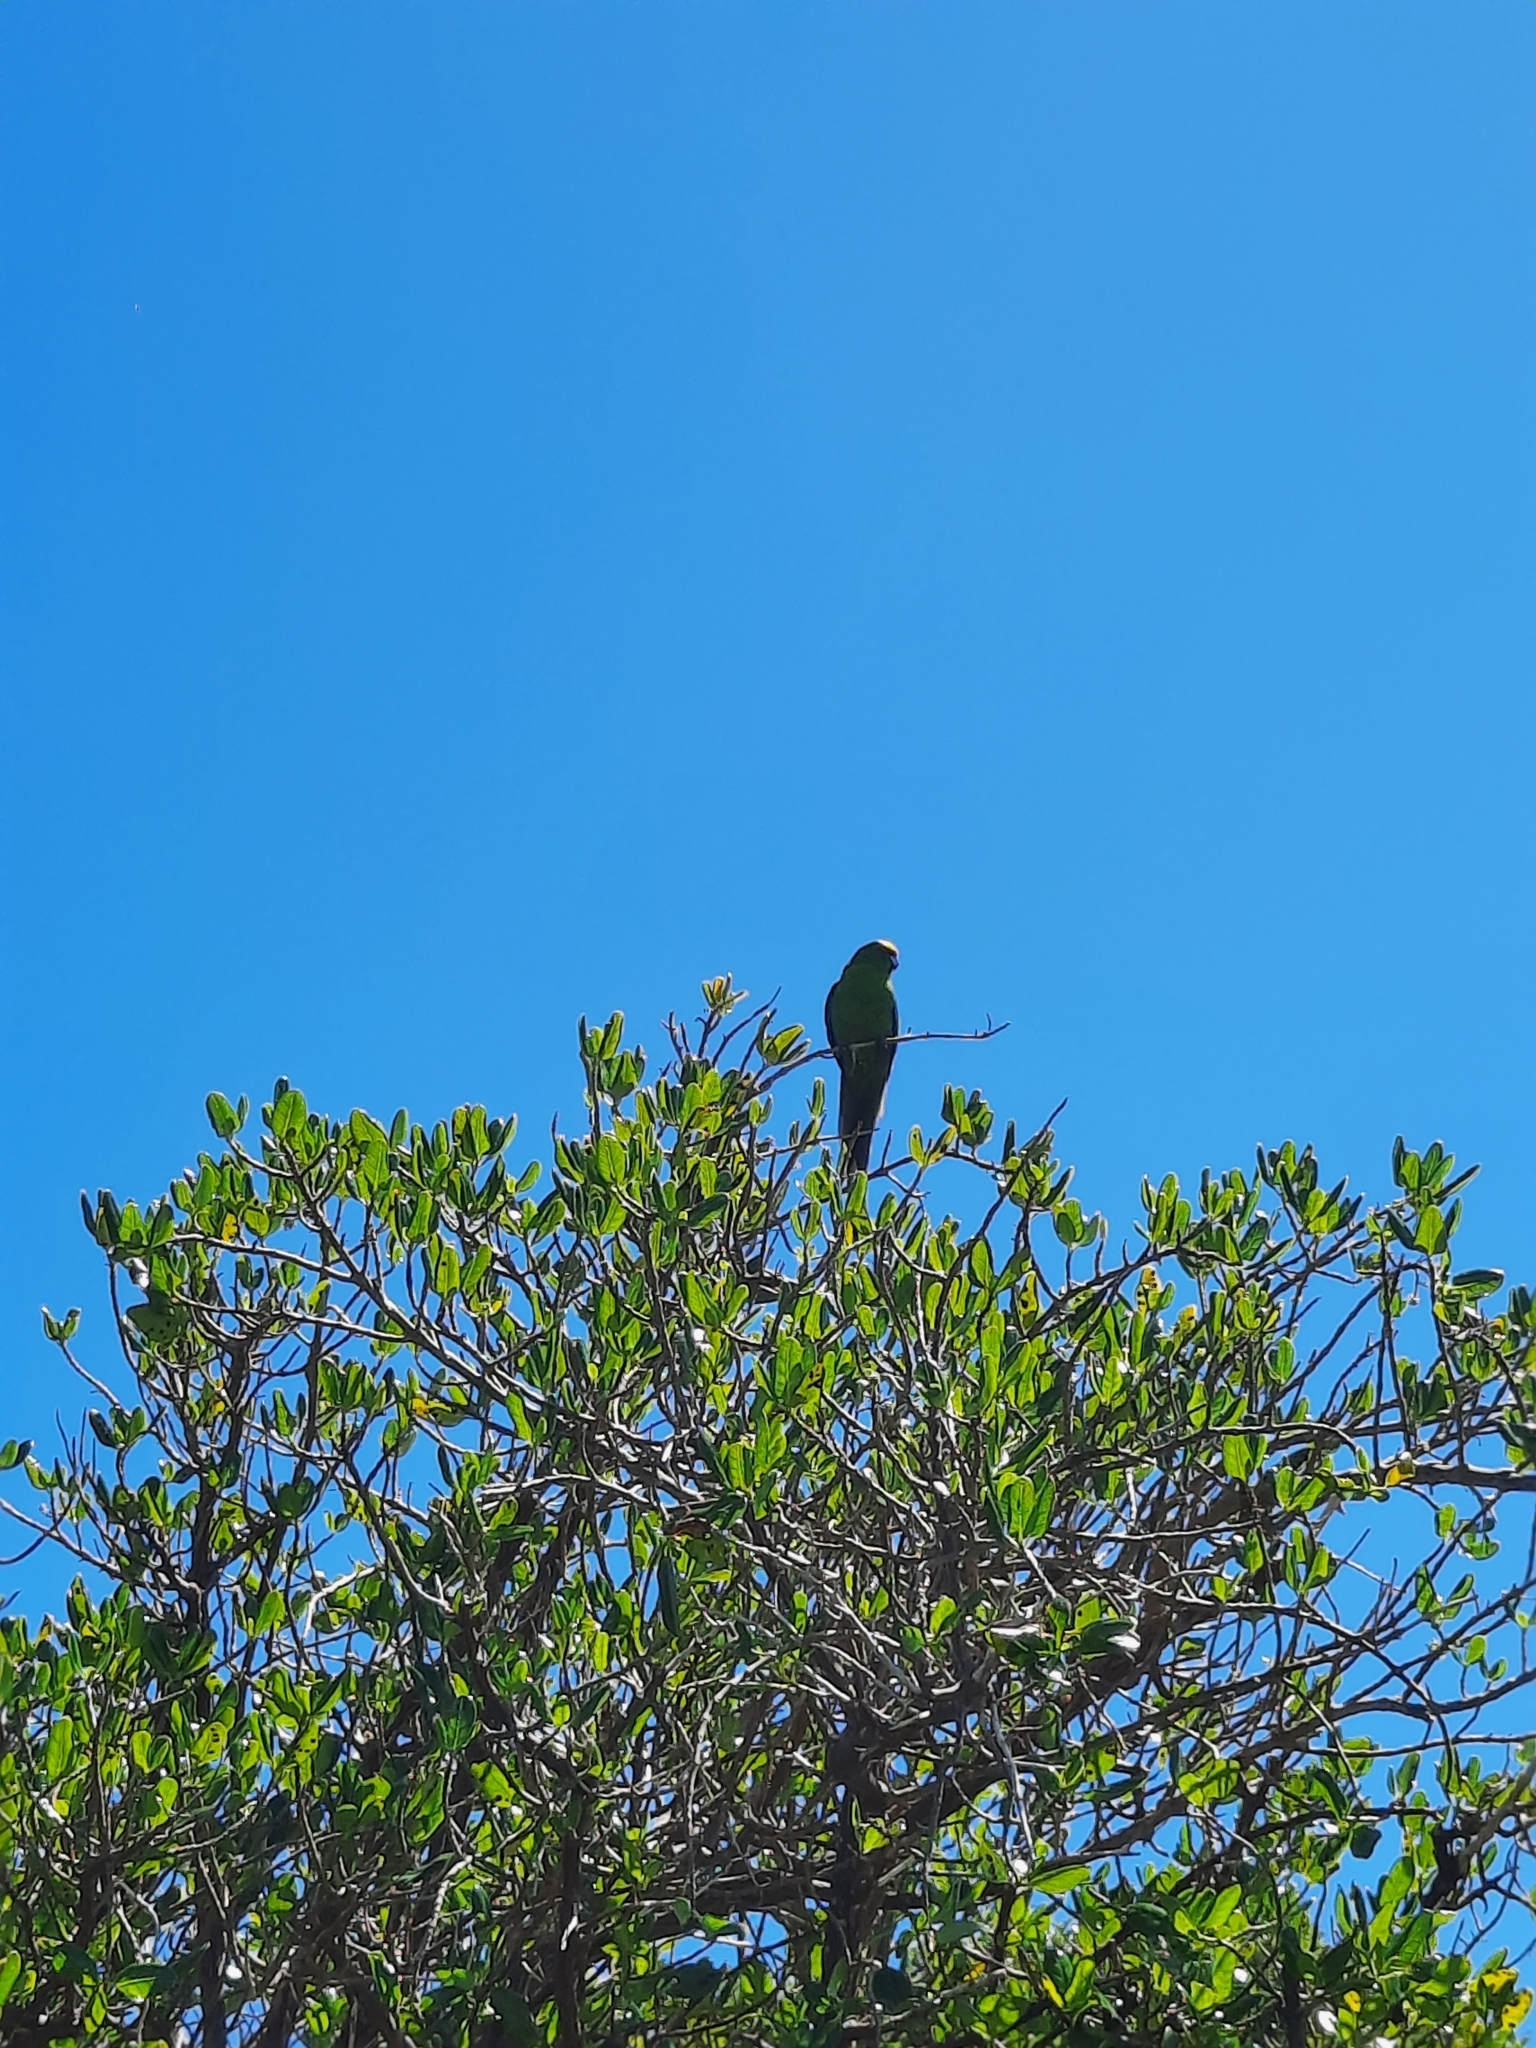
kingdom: Animalia
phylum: Chordata
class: Aves
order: Psittaciformes
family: Psittacidae
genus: Cyanoramphus
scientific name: Cyanoramphus auriceps
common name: Yellow-crowned parakeet
